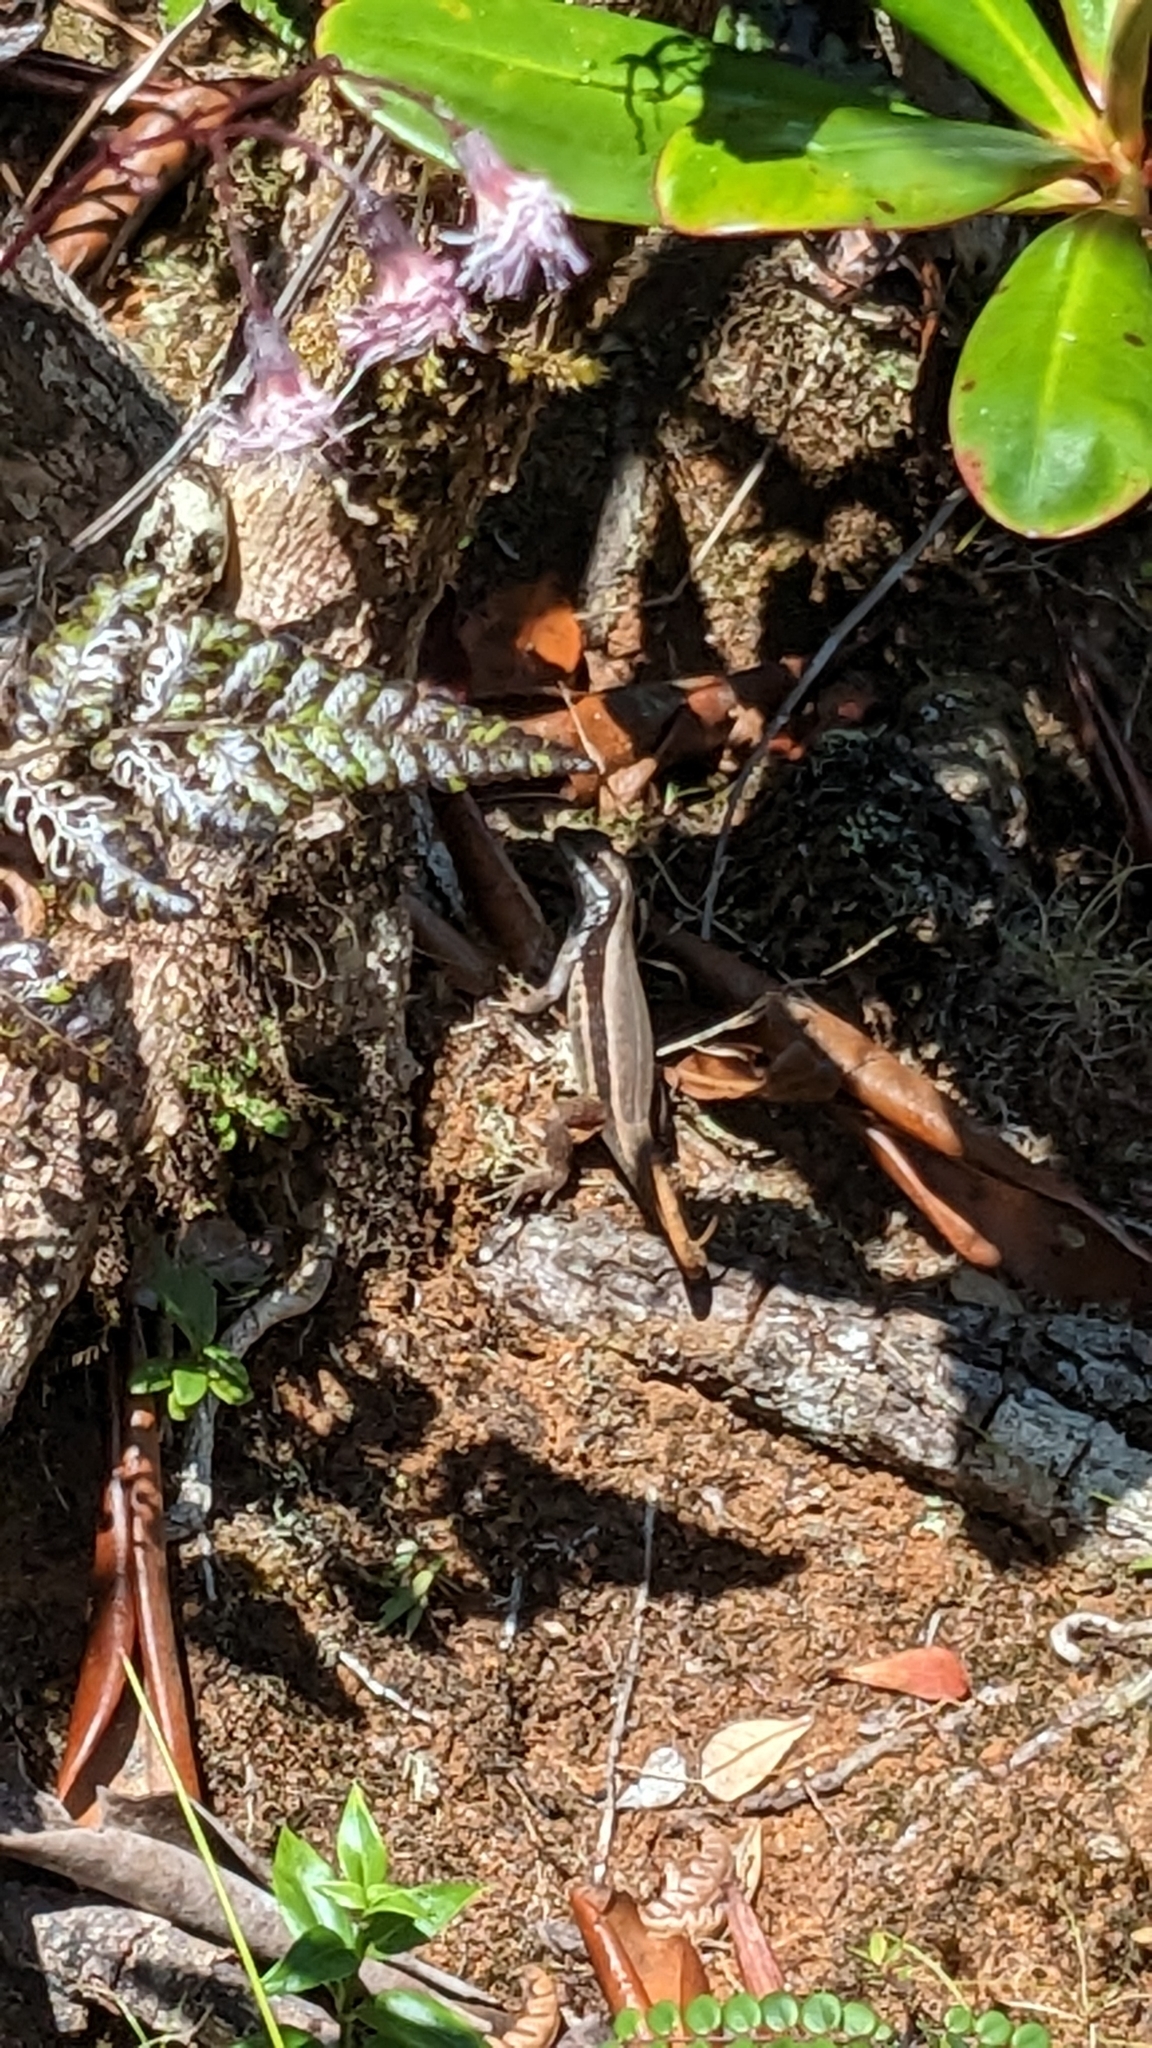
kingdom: Animalia
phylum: Chordata
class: Squamata
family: Leiocephalidae
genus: Leiocephalus
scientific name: Leiocephalus macropus
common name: Monte verde curlytail lizard
